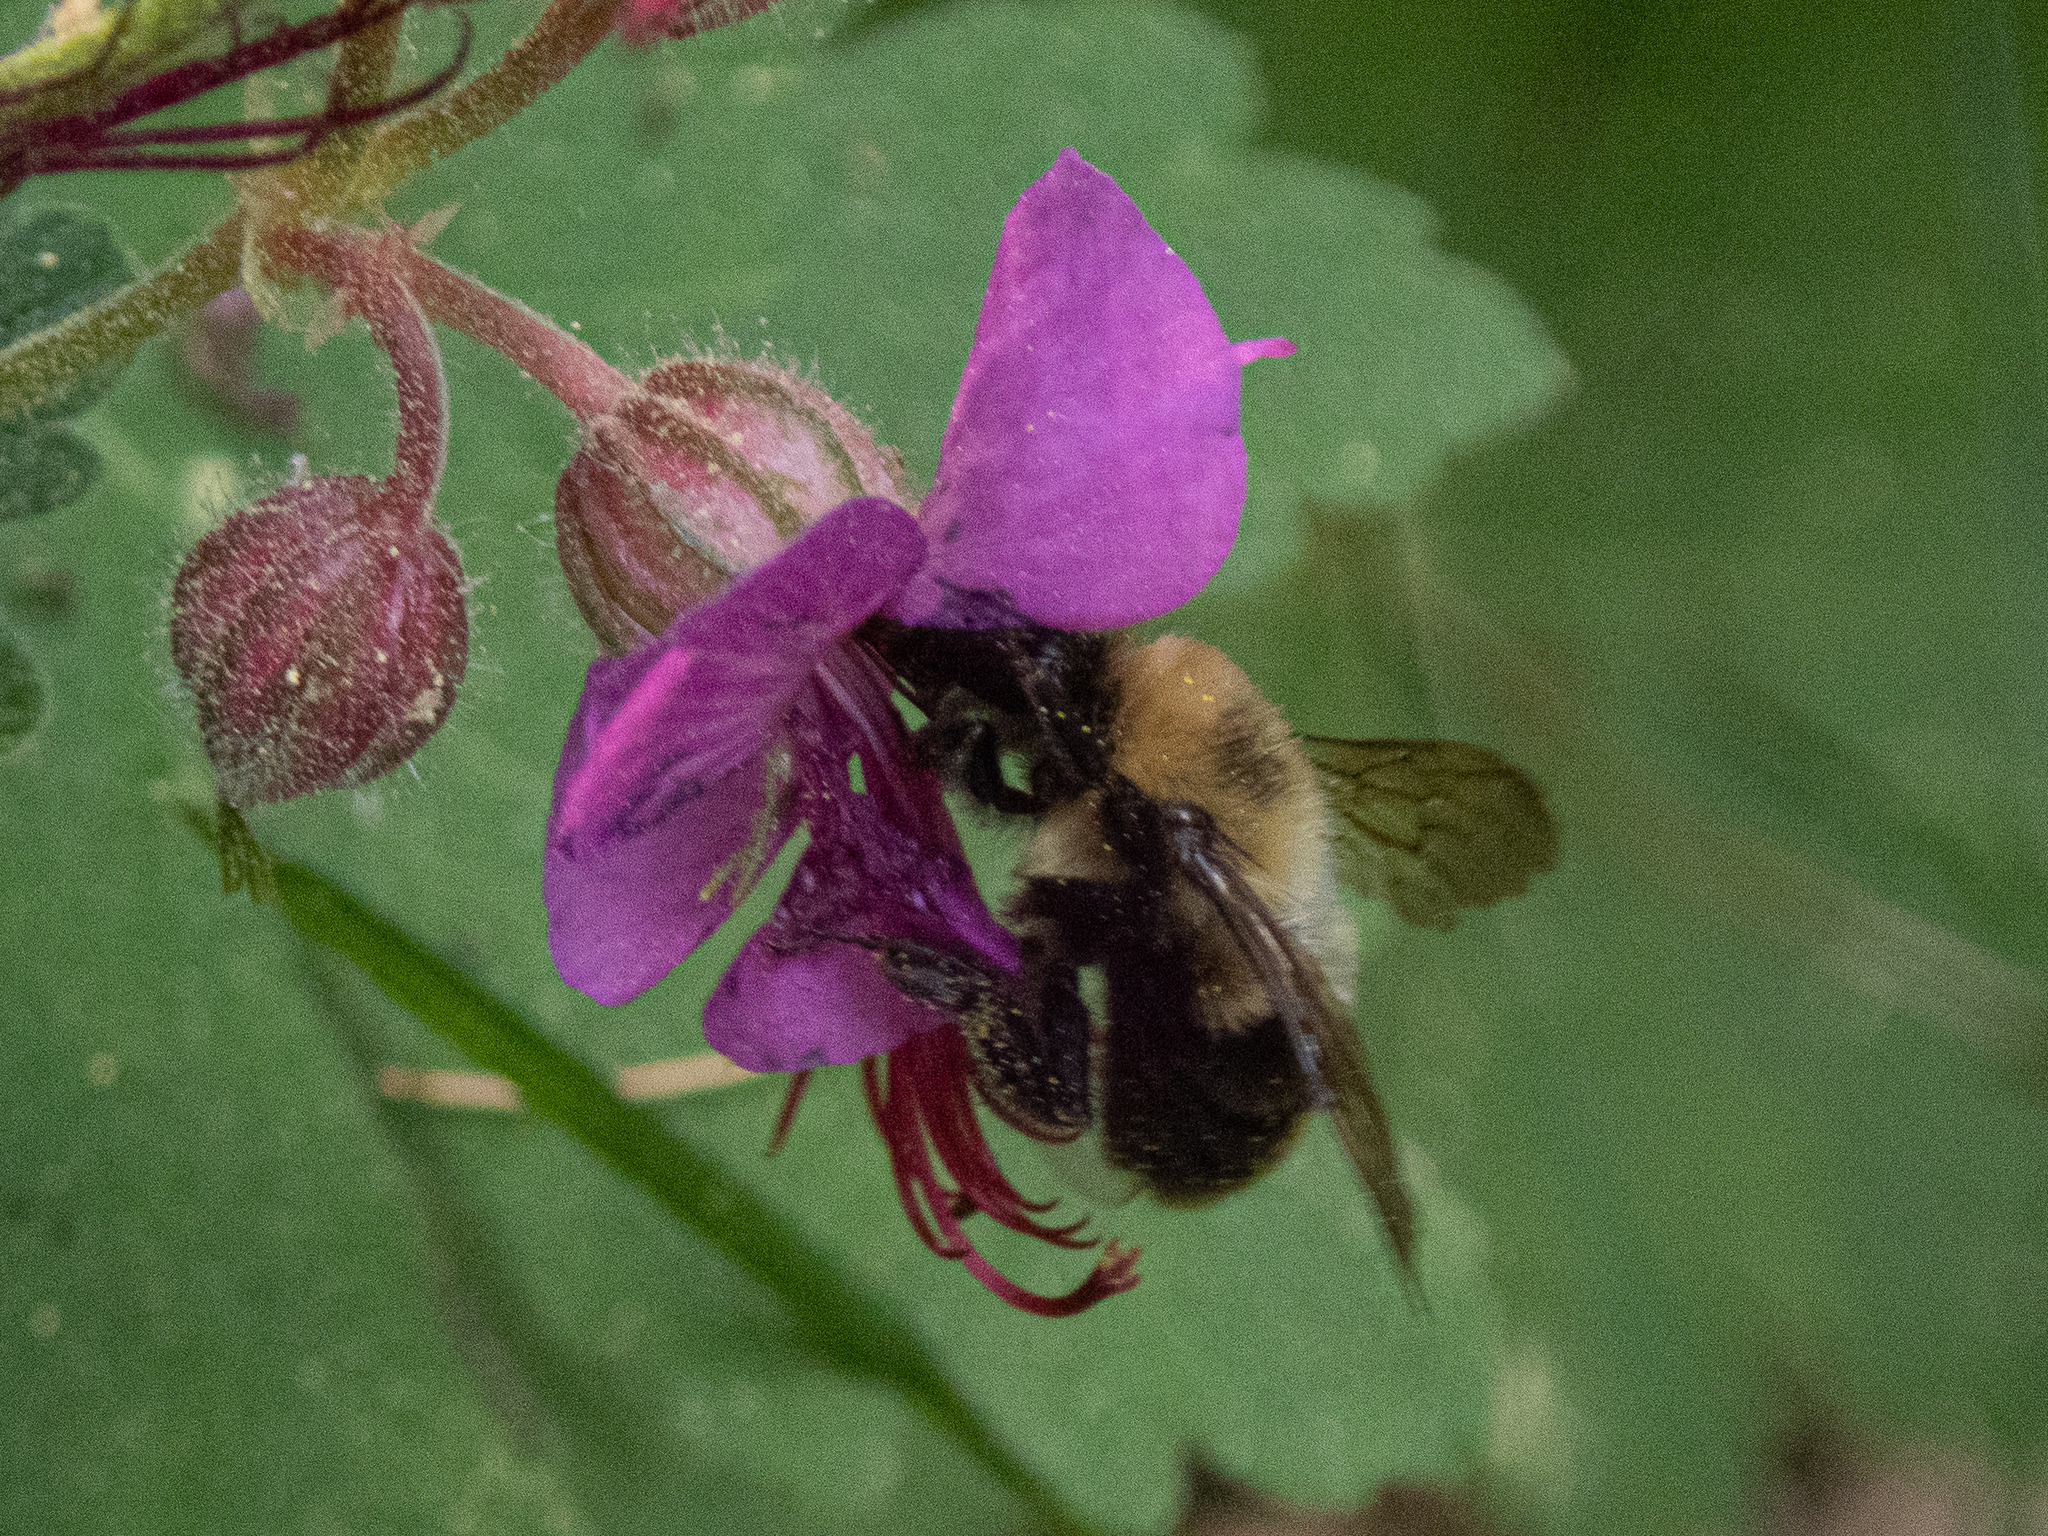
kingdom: Animalia
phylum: Arthropoda
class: Insecta
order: Hymenoptera
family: Apidae
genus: Bombus
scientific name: Bombus bimaculatus
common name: Two-spotted bumble bee
